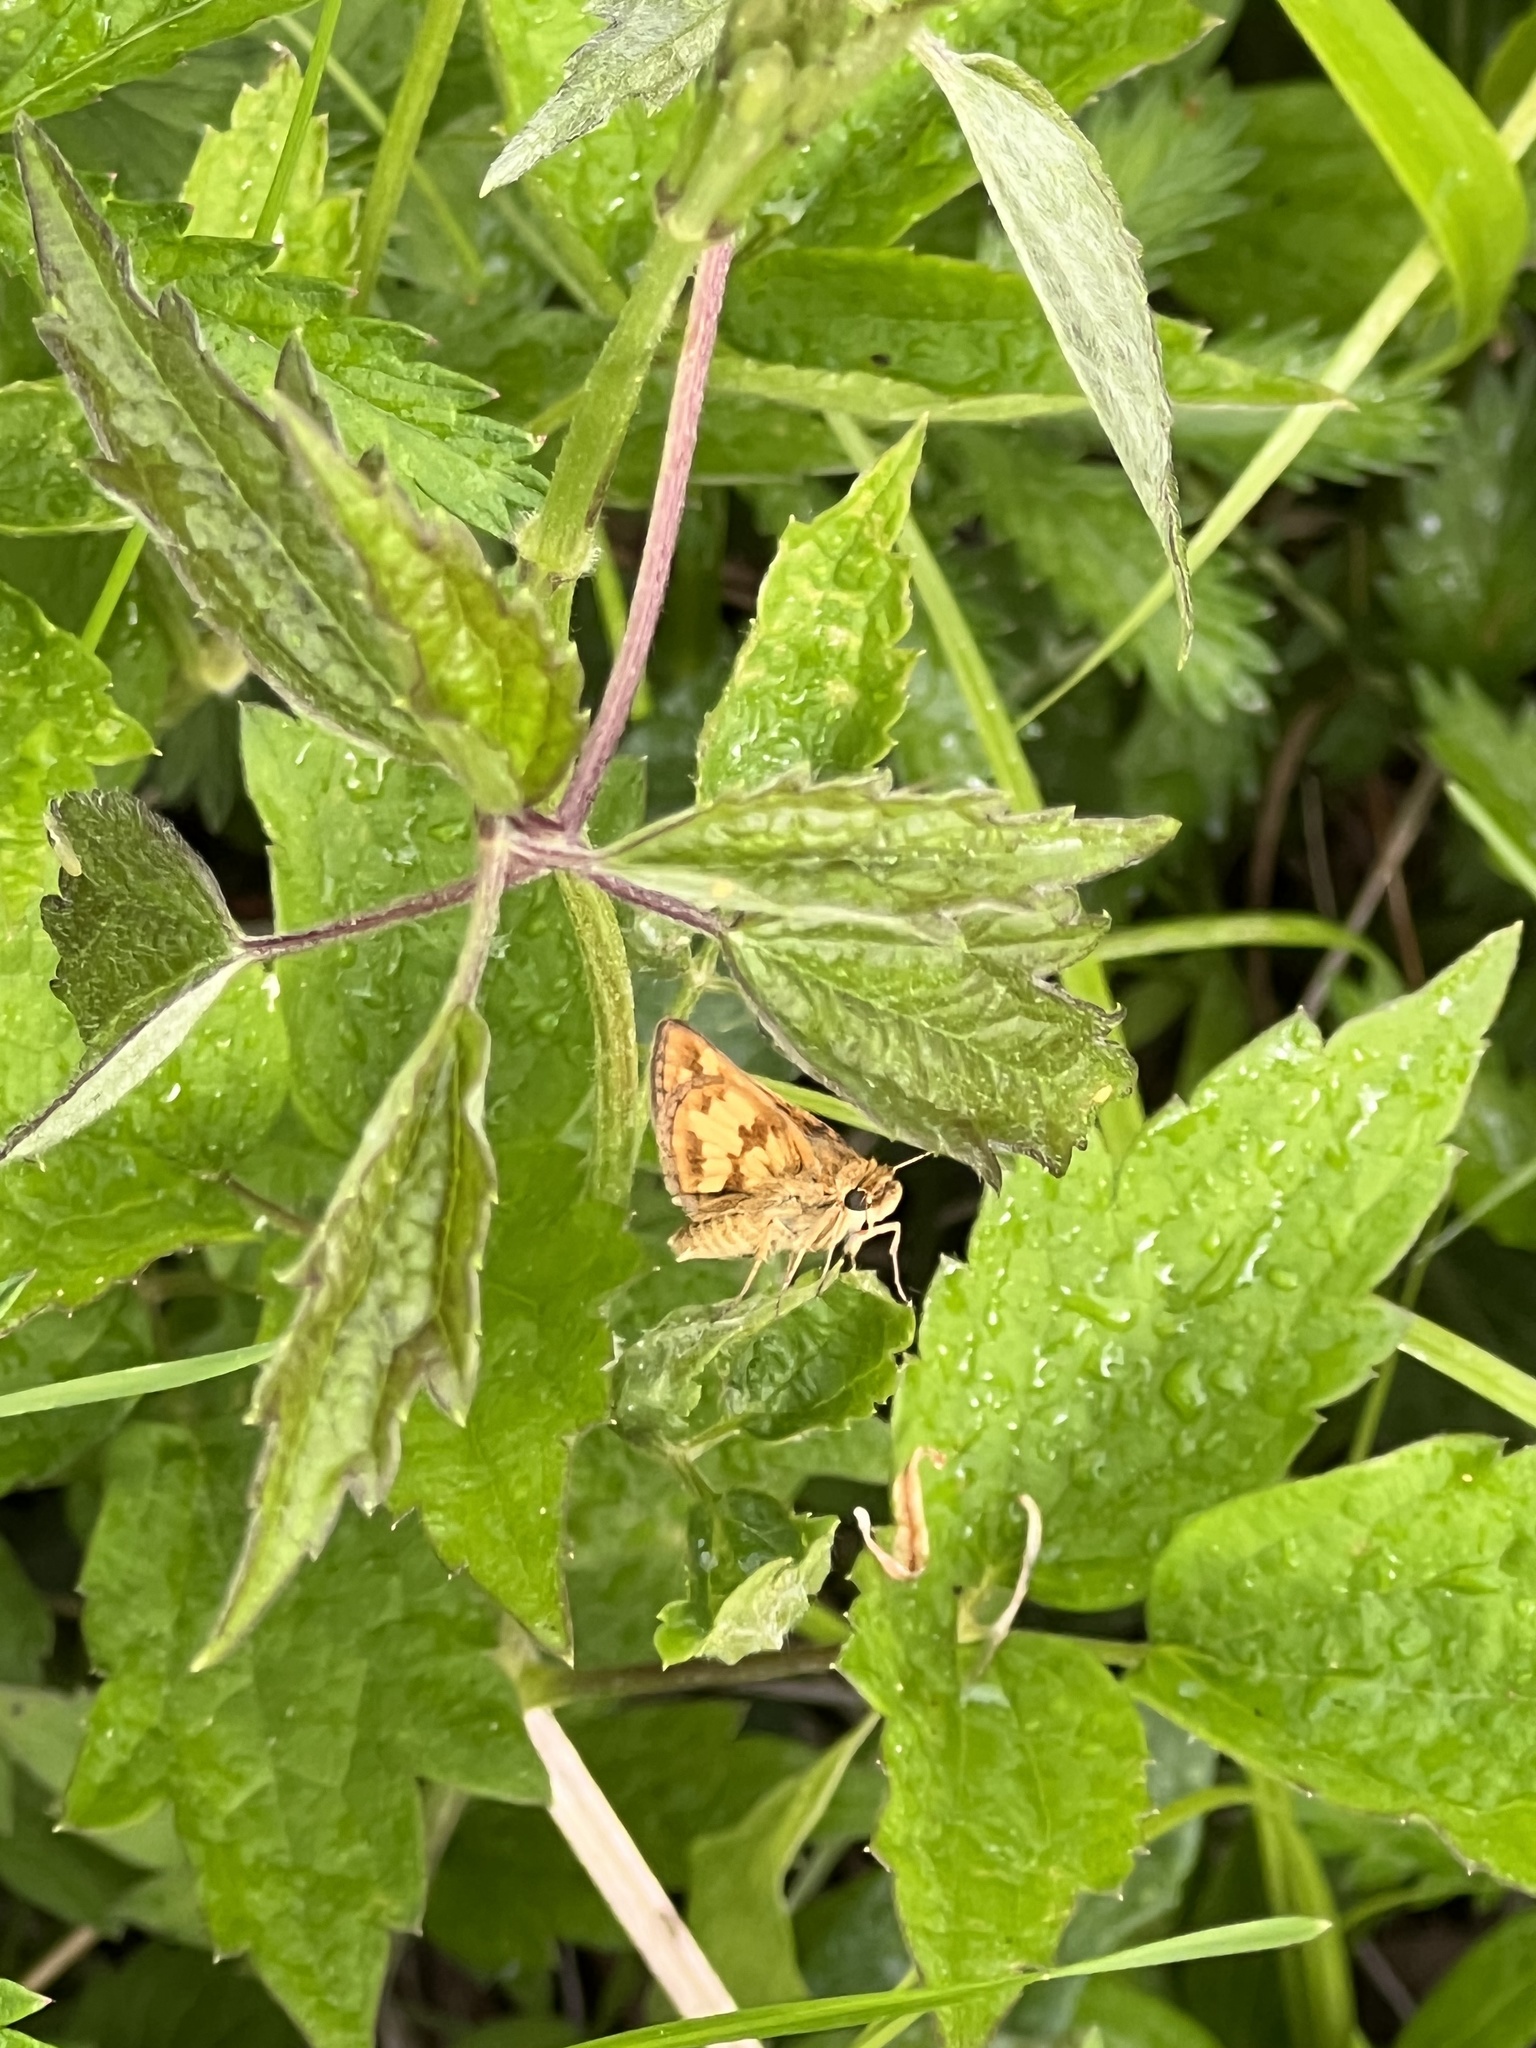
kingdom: Animalia
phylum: Arthropoda
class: Insecta
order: Lepidoptera
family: Hesperiidae
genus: Polites
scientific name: Polites coras
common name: Peck's skipper
